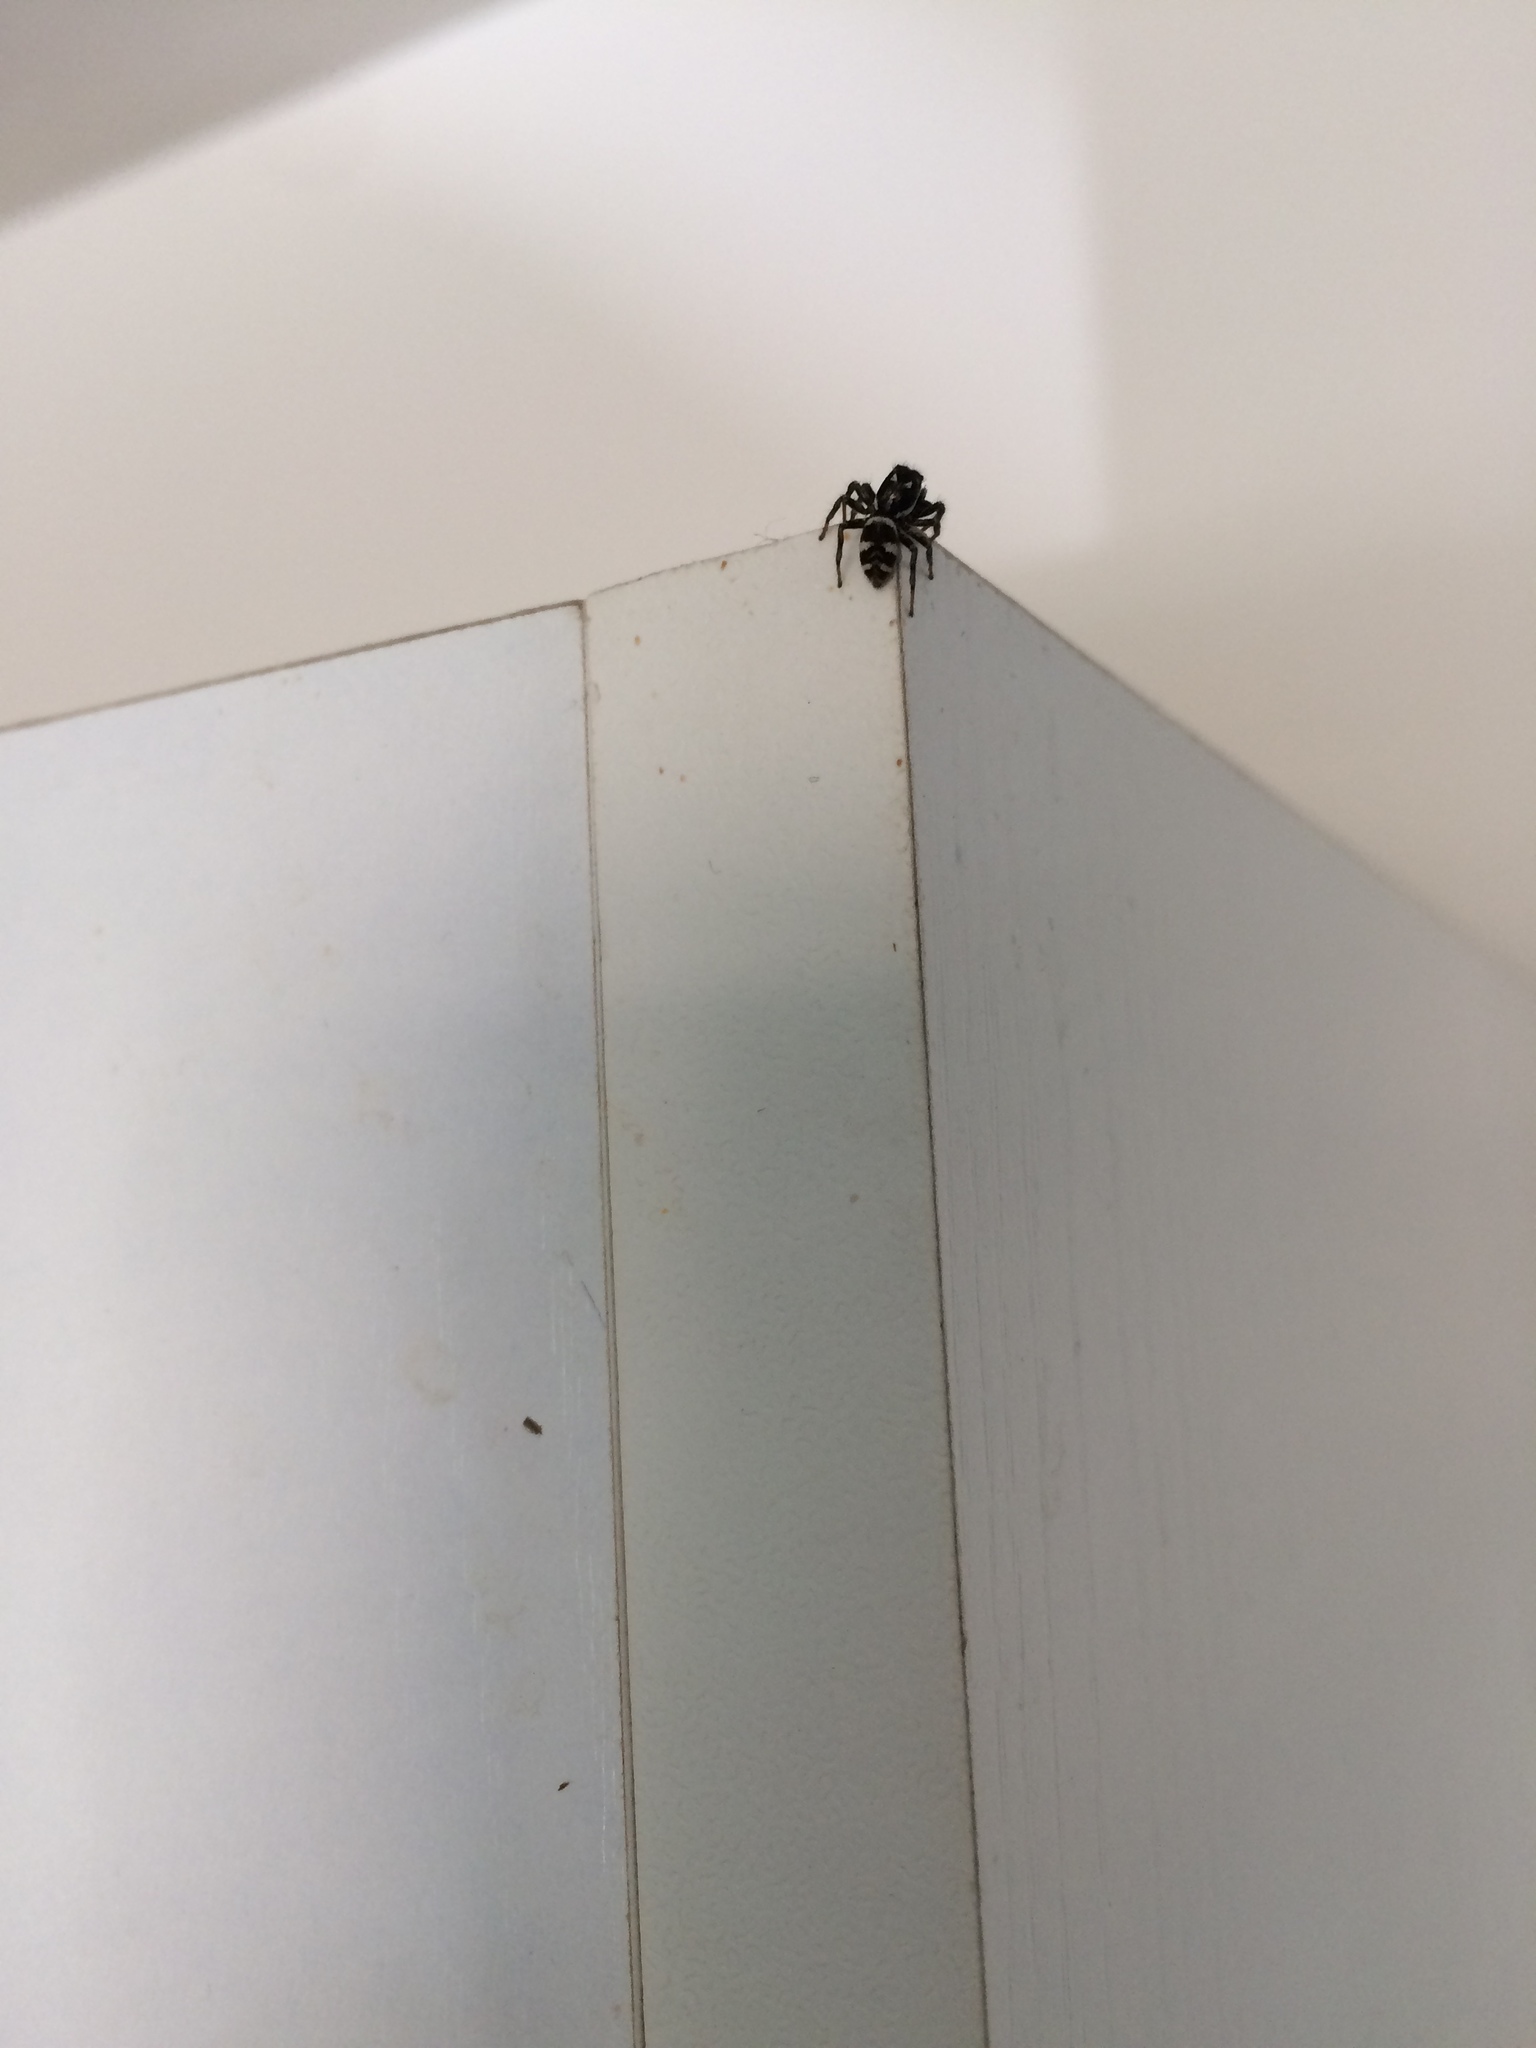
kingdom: Animalia
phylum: Arthropoda
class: Arachnida
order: Araneae
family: Salticidae
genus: Salticus
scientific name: Salticus scenicus
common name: Zebra jumper
